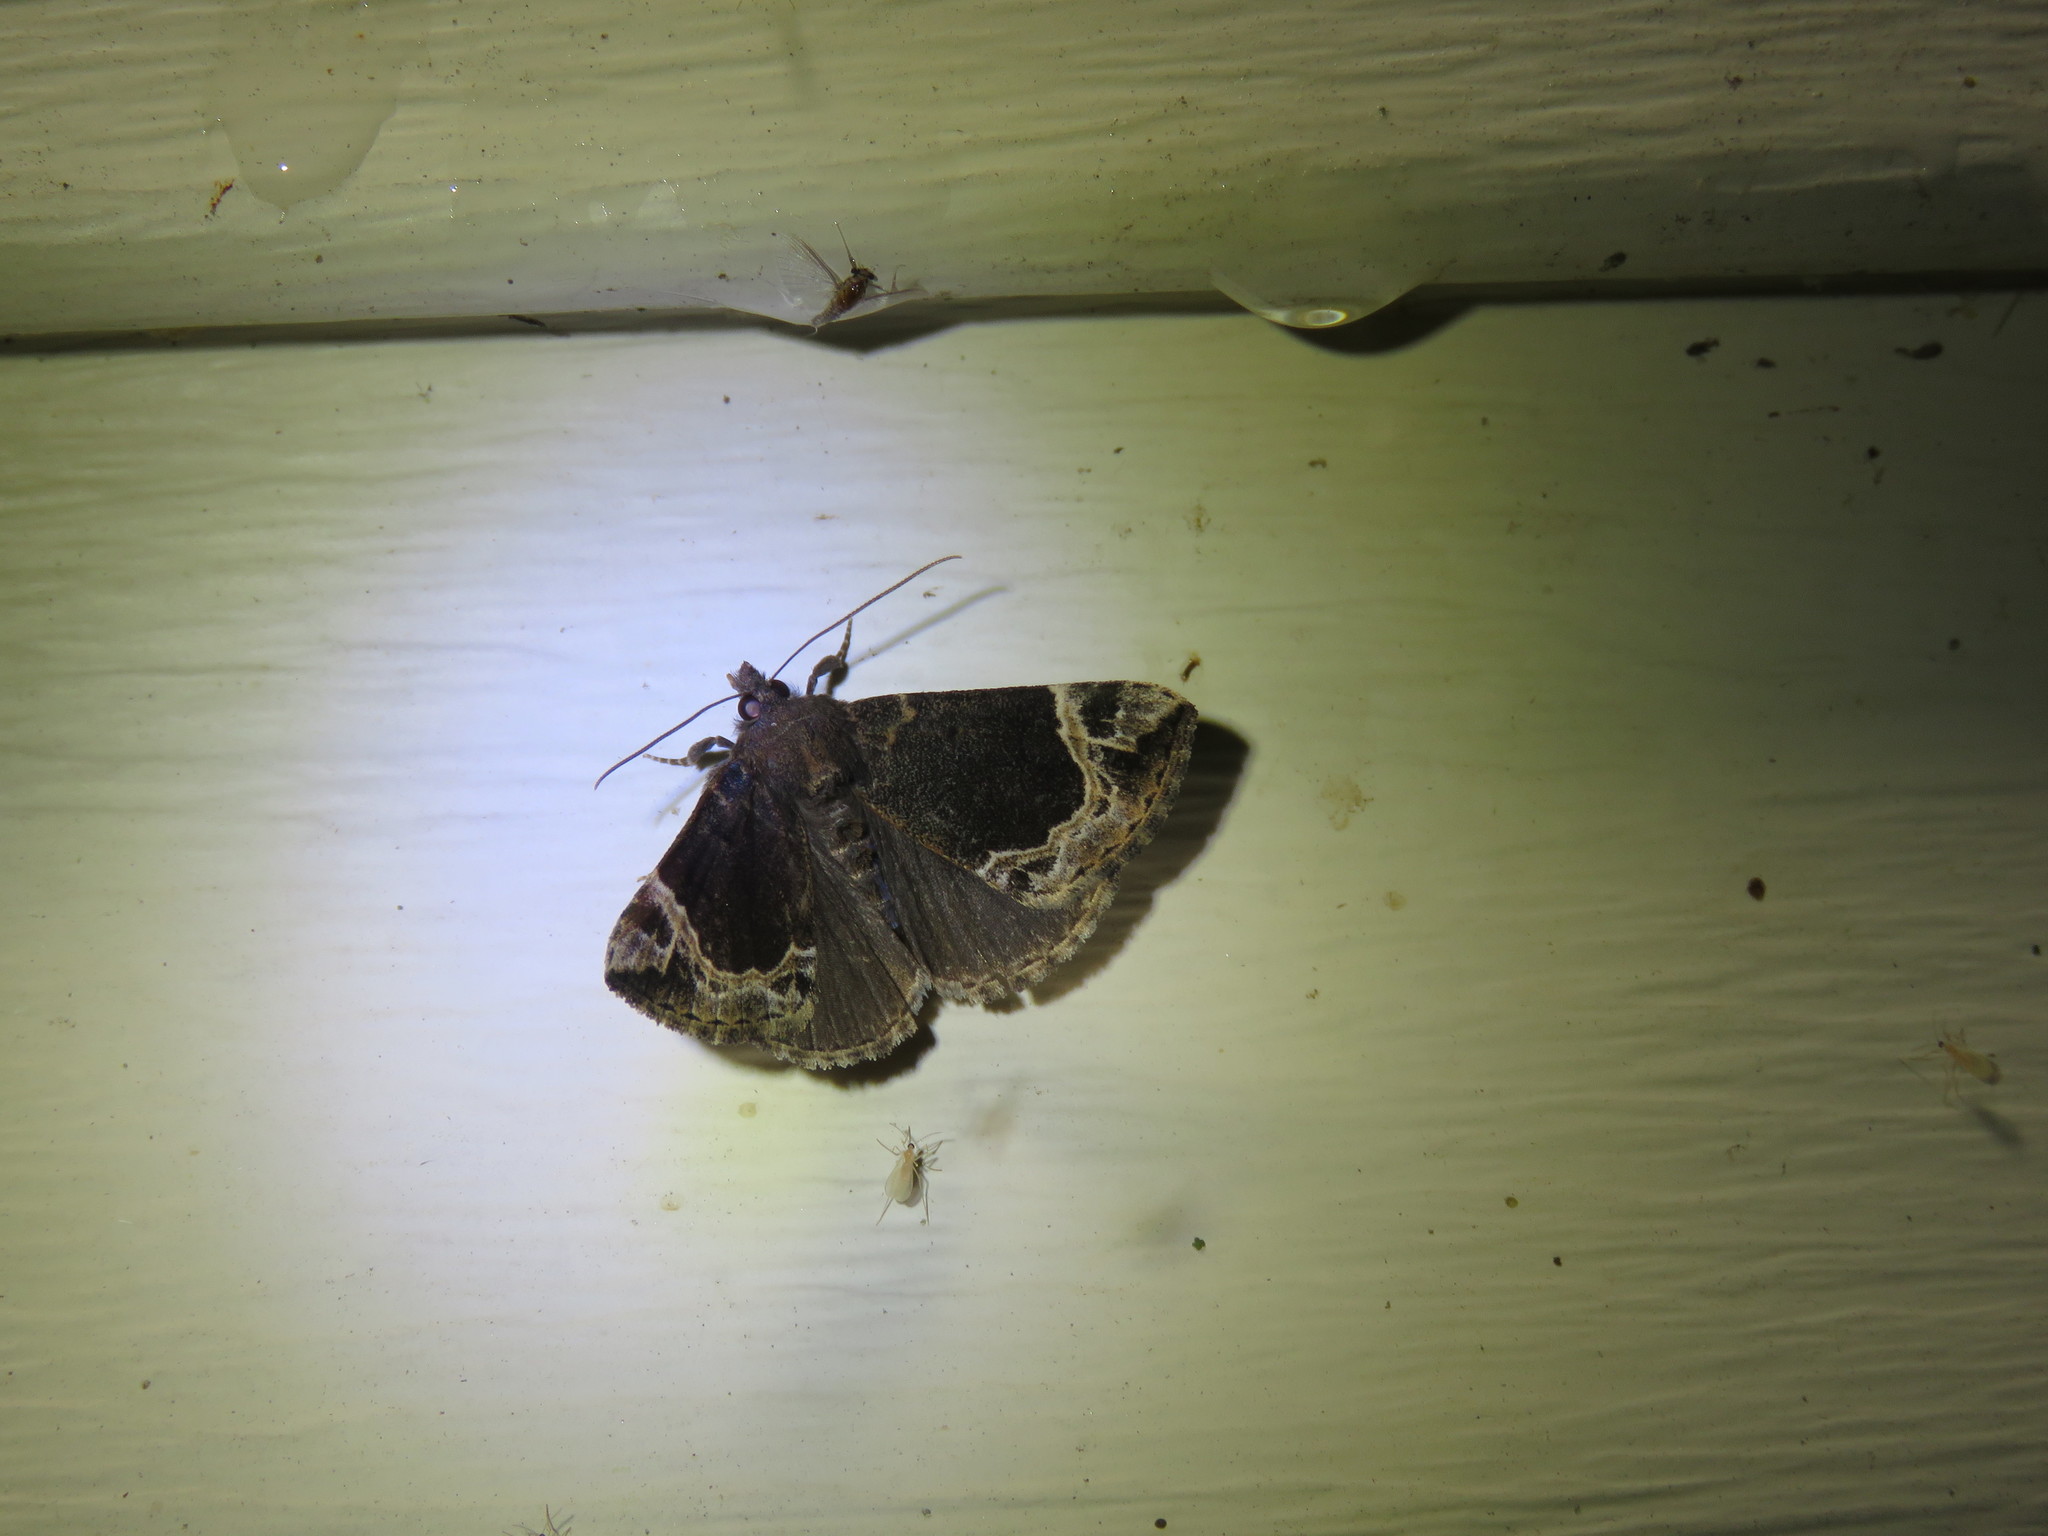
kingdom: Animalia
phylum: Arthropoda
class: Insecta
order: Lepidoptera
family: Erebidae
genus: Hypena
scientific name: Hypena abalienalis
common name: White-lined snout
